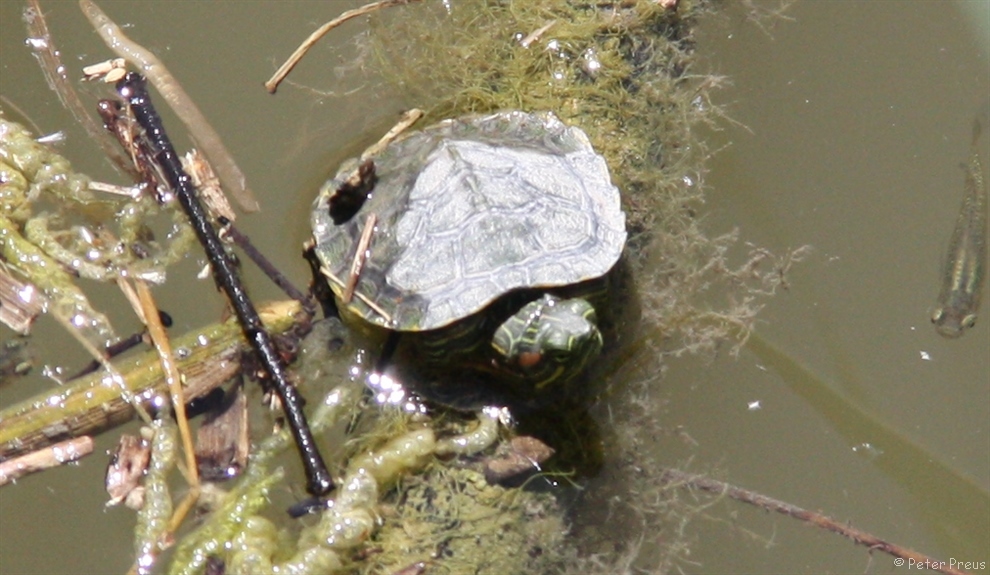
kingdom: Animalia
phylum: Chordata
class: Testudines
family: Emydidae
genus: Trachemys
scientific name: Trachemys scripta
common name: Slider
